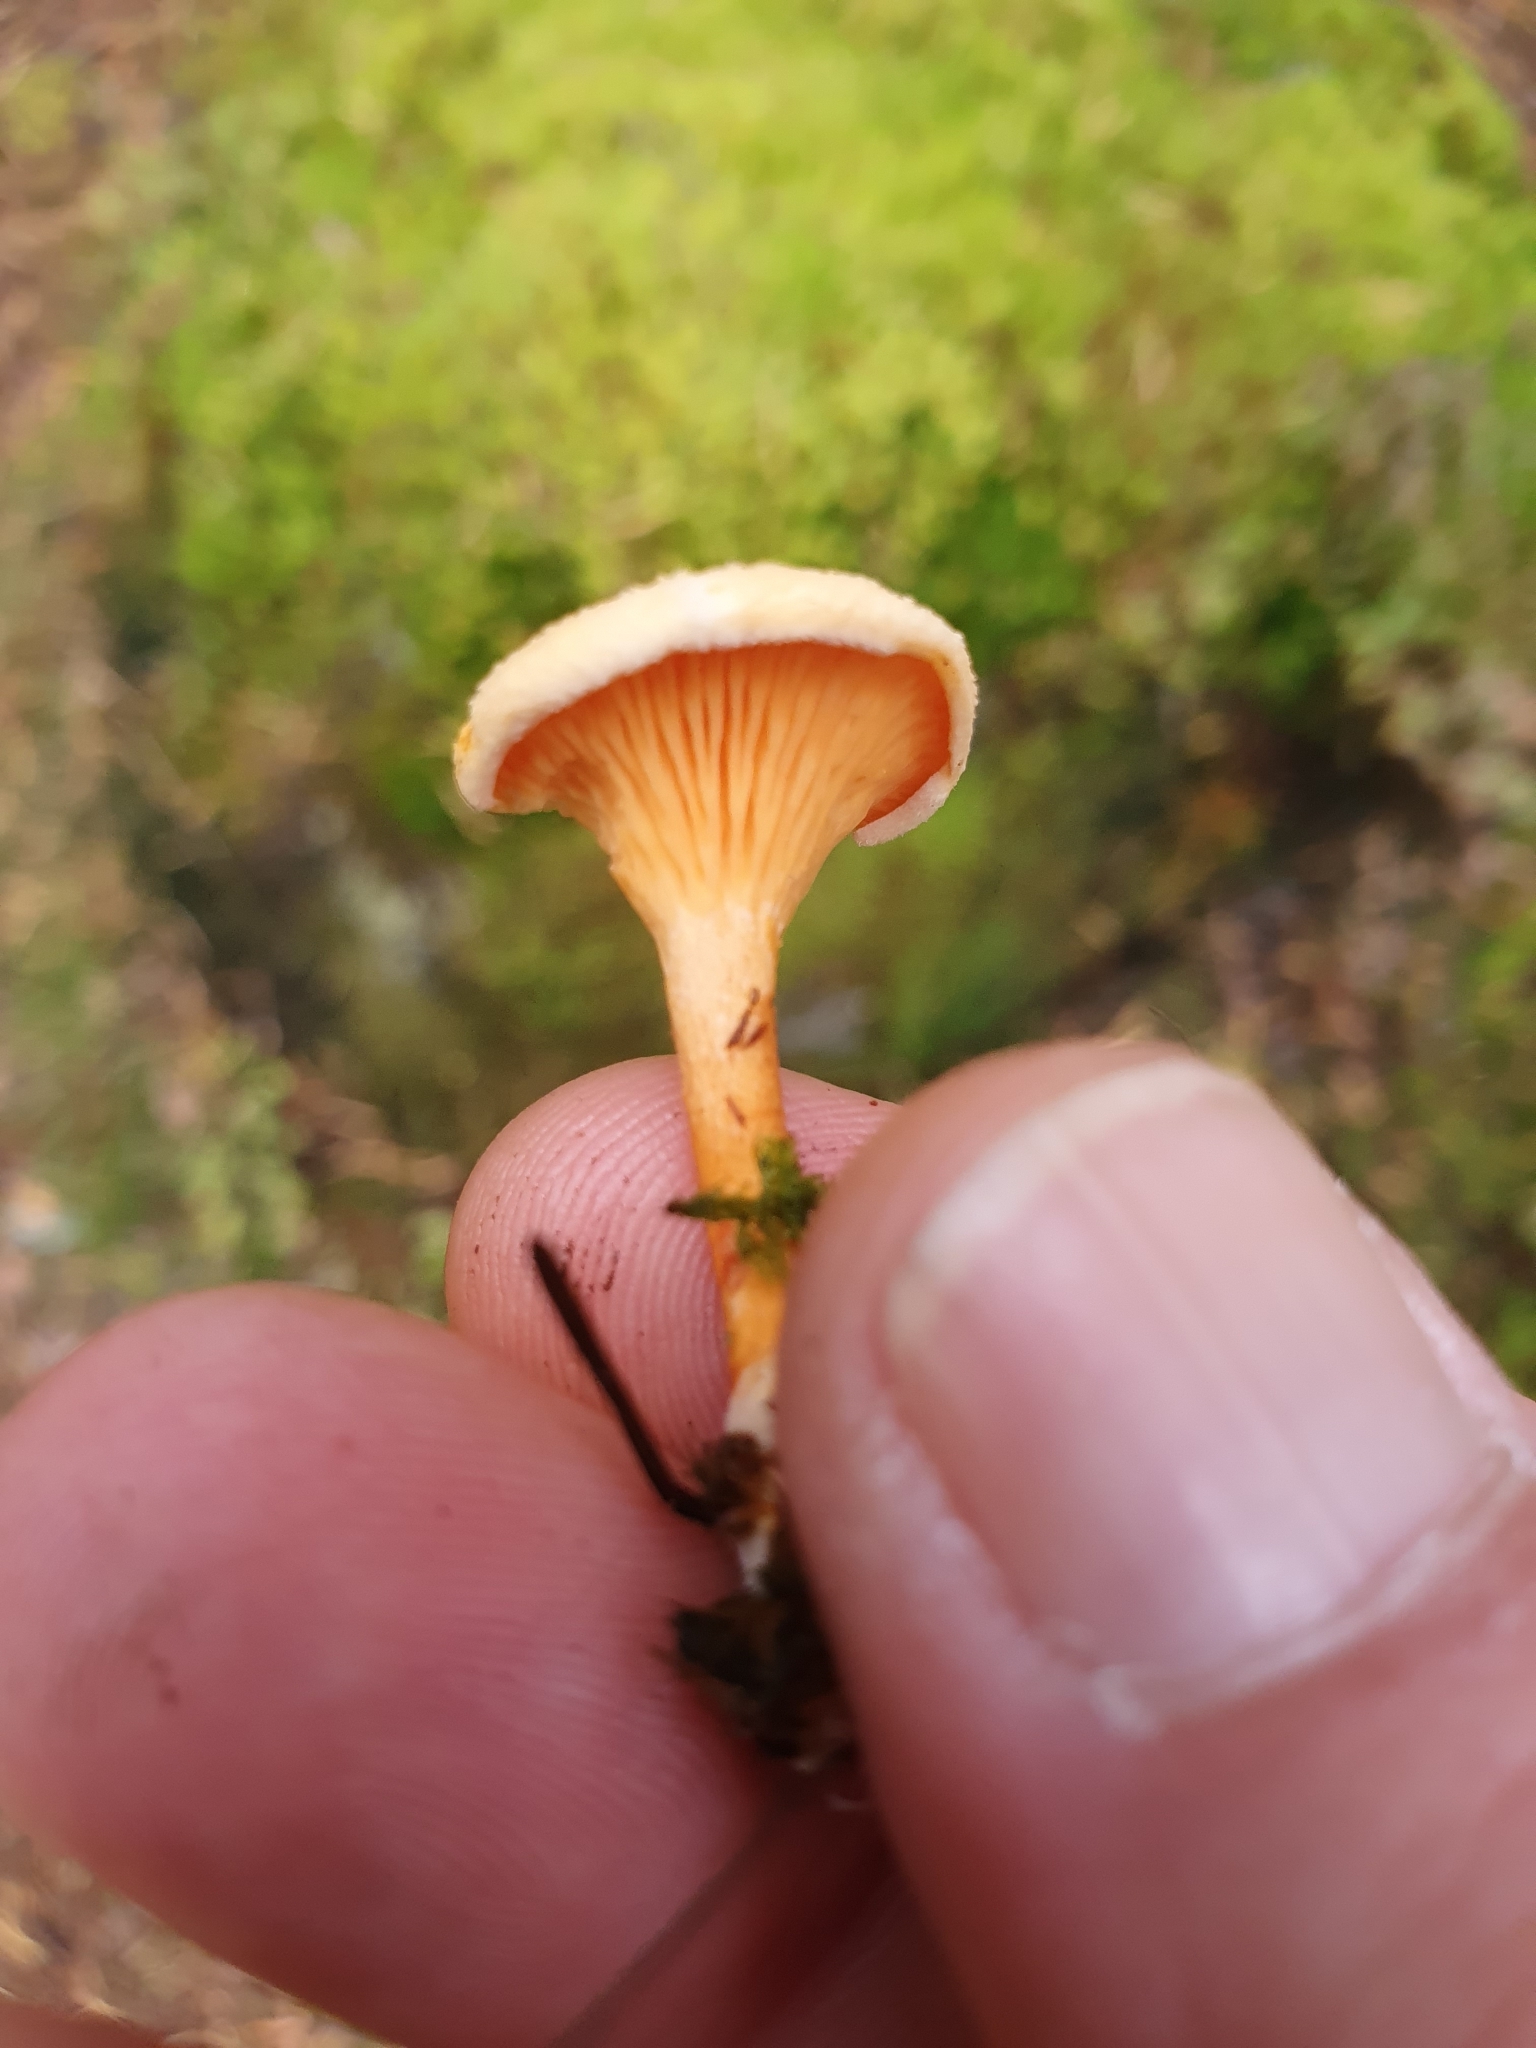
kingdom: Fungi
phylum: Basidiomycota
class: Agaricomycetes
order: Boletales
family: Hygrophoropsidaceae
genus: Hygrophoropsis
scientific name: Hygrophoropsis aurantiaca
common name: False chanterelle
